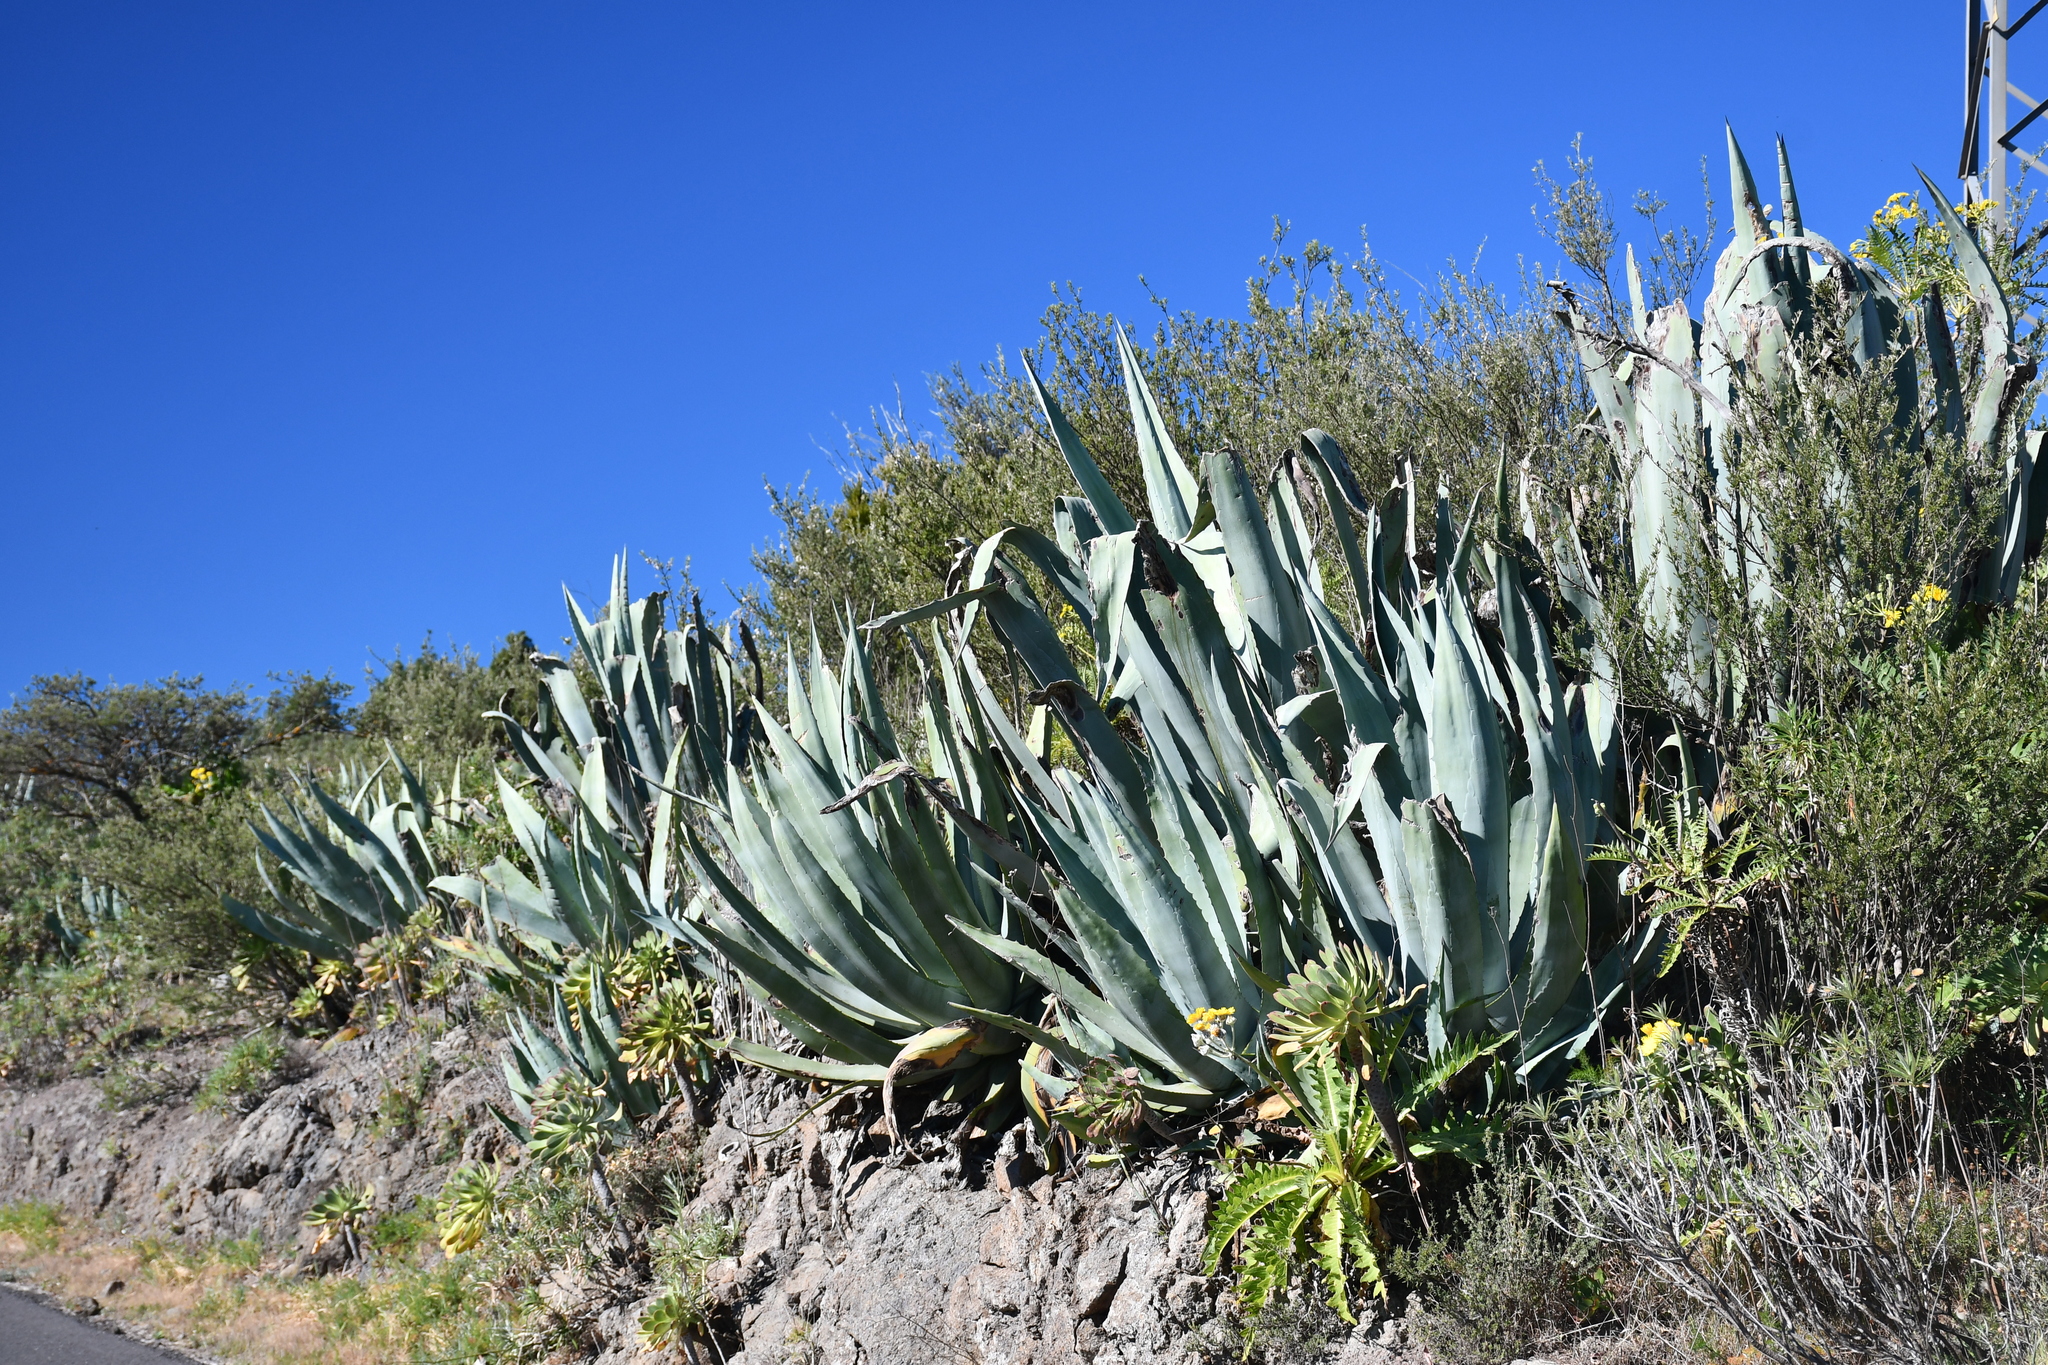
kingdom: Plantae
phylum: Tracheophyta
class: Liliopsida
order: Asparagales
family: Asparagaceae
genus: Agave
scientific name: Agave americana
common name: Centuryplant
